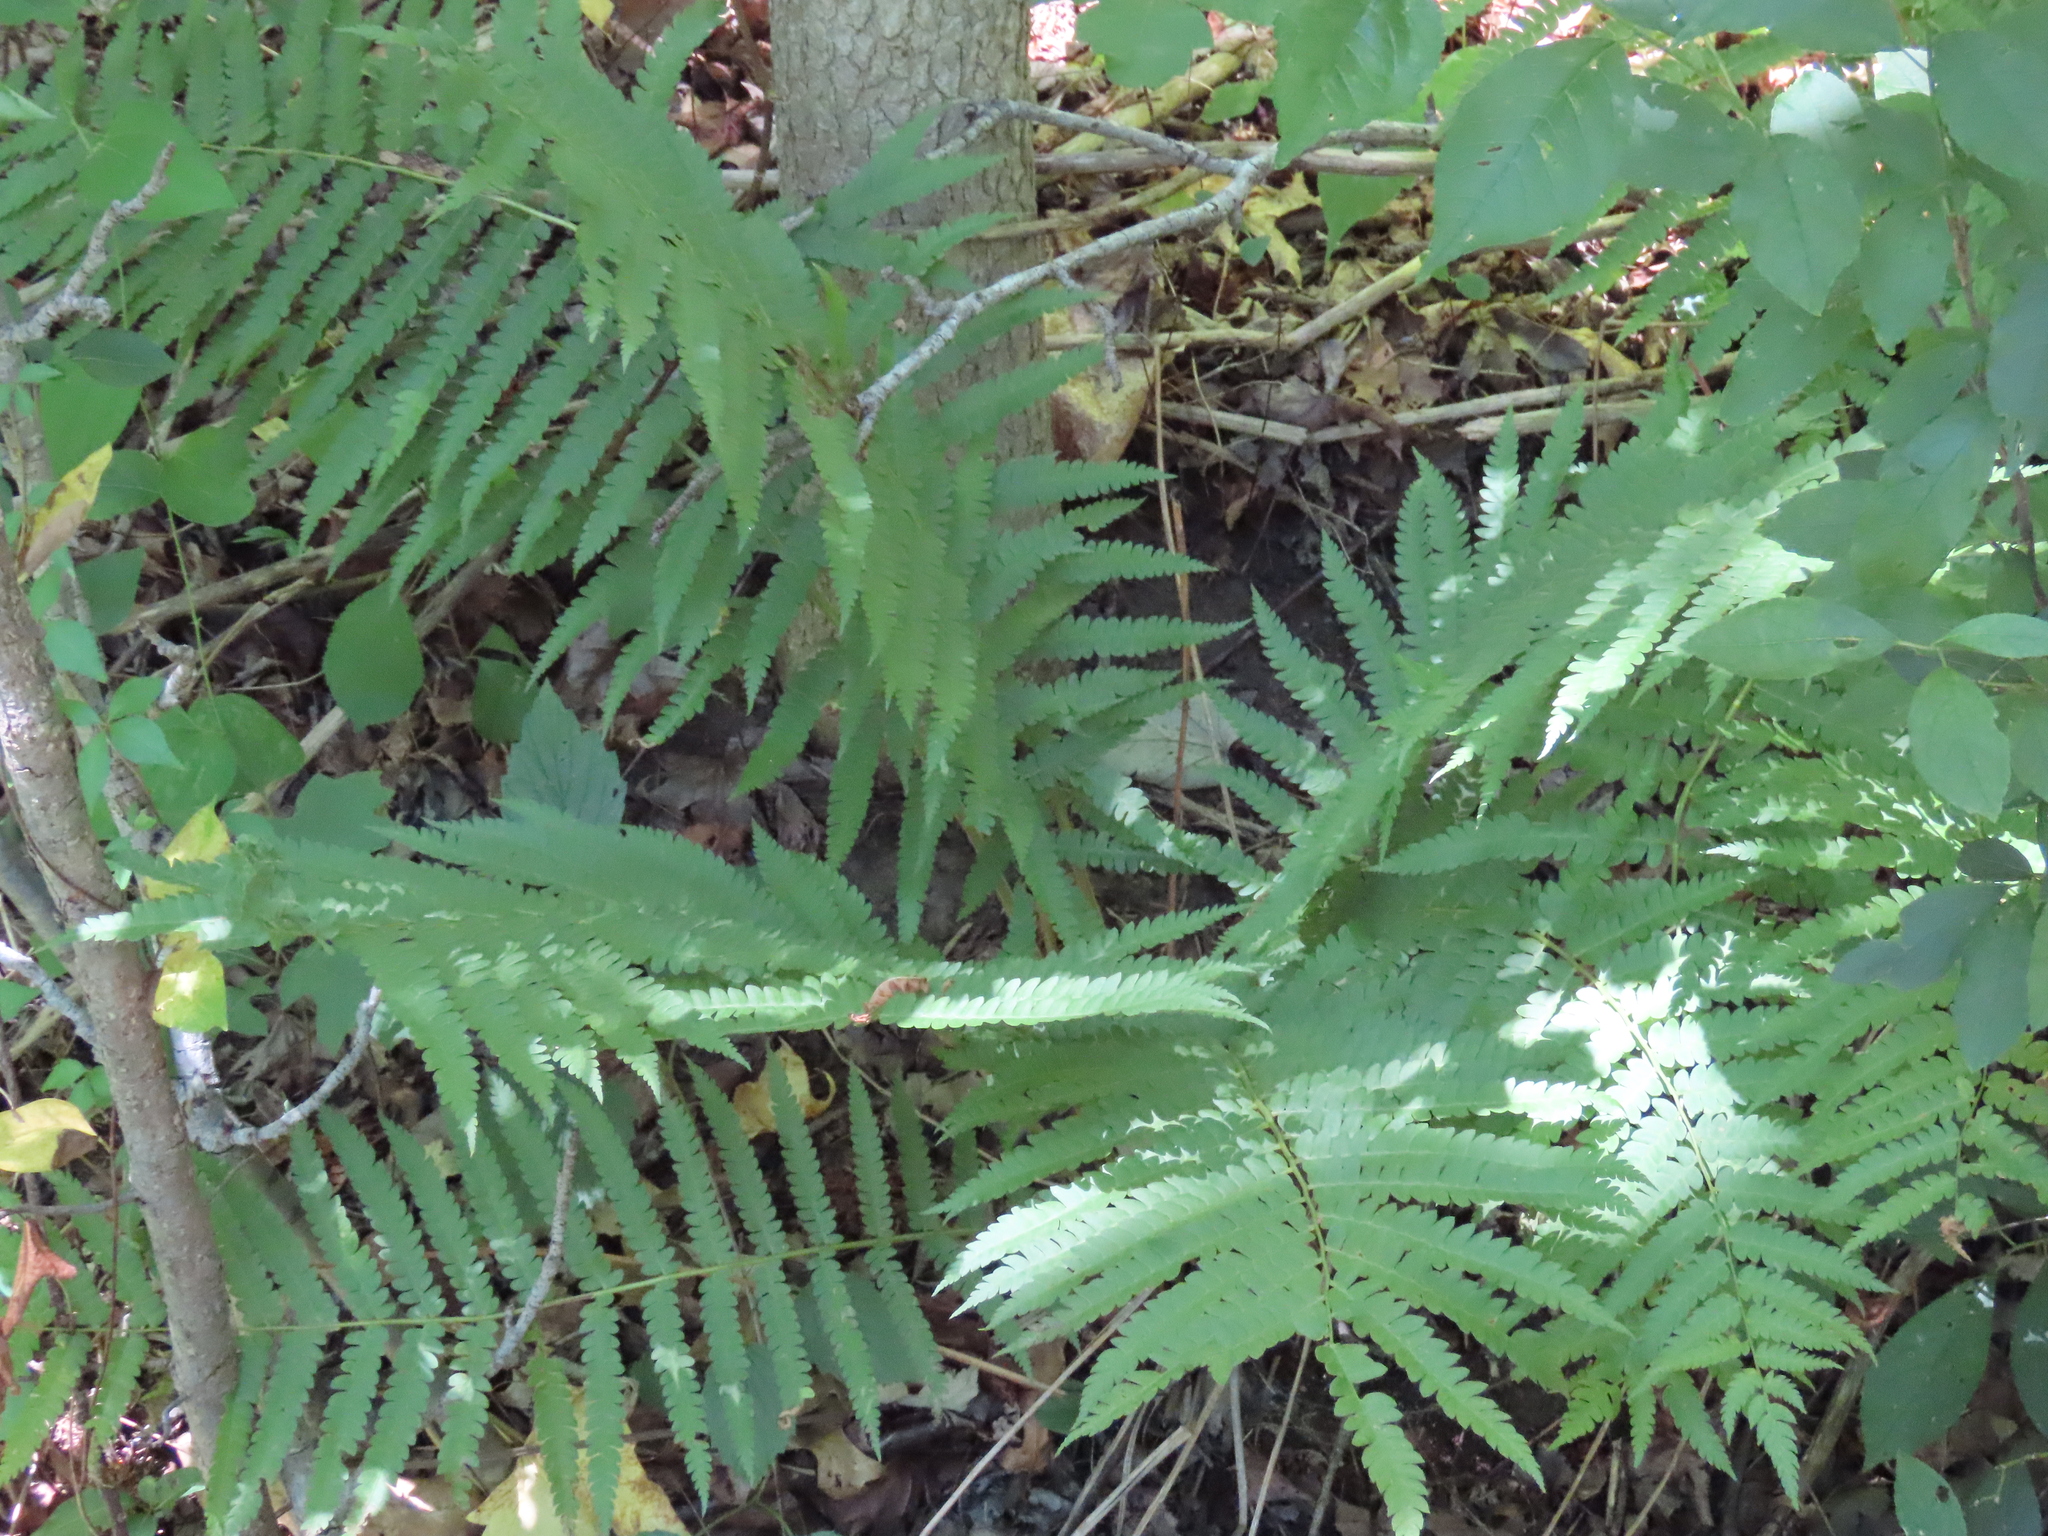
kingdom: Plantae
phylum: Tracheophyta
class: Polypodiopsida
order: Osmundales
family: Osmundaceae
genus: Osmundastrum
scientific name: Osmundastrum cinnamomeum
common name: Cinnamon fern
